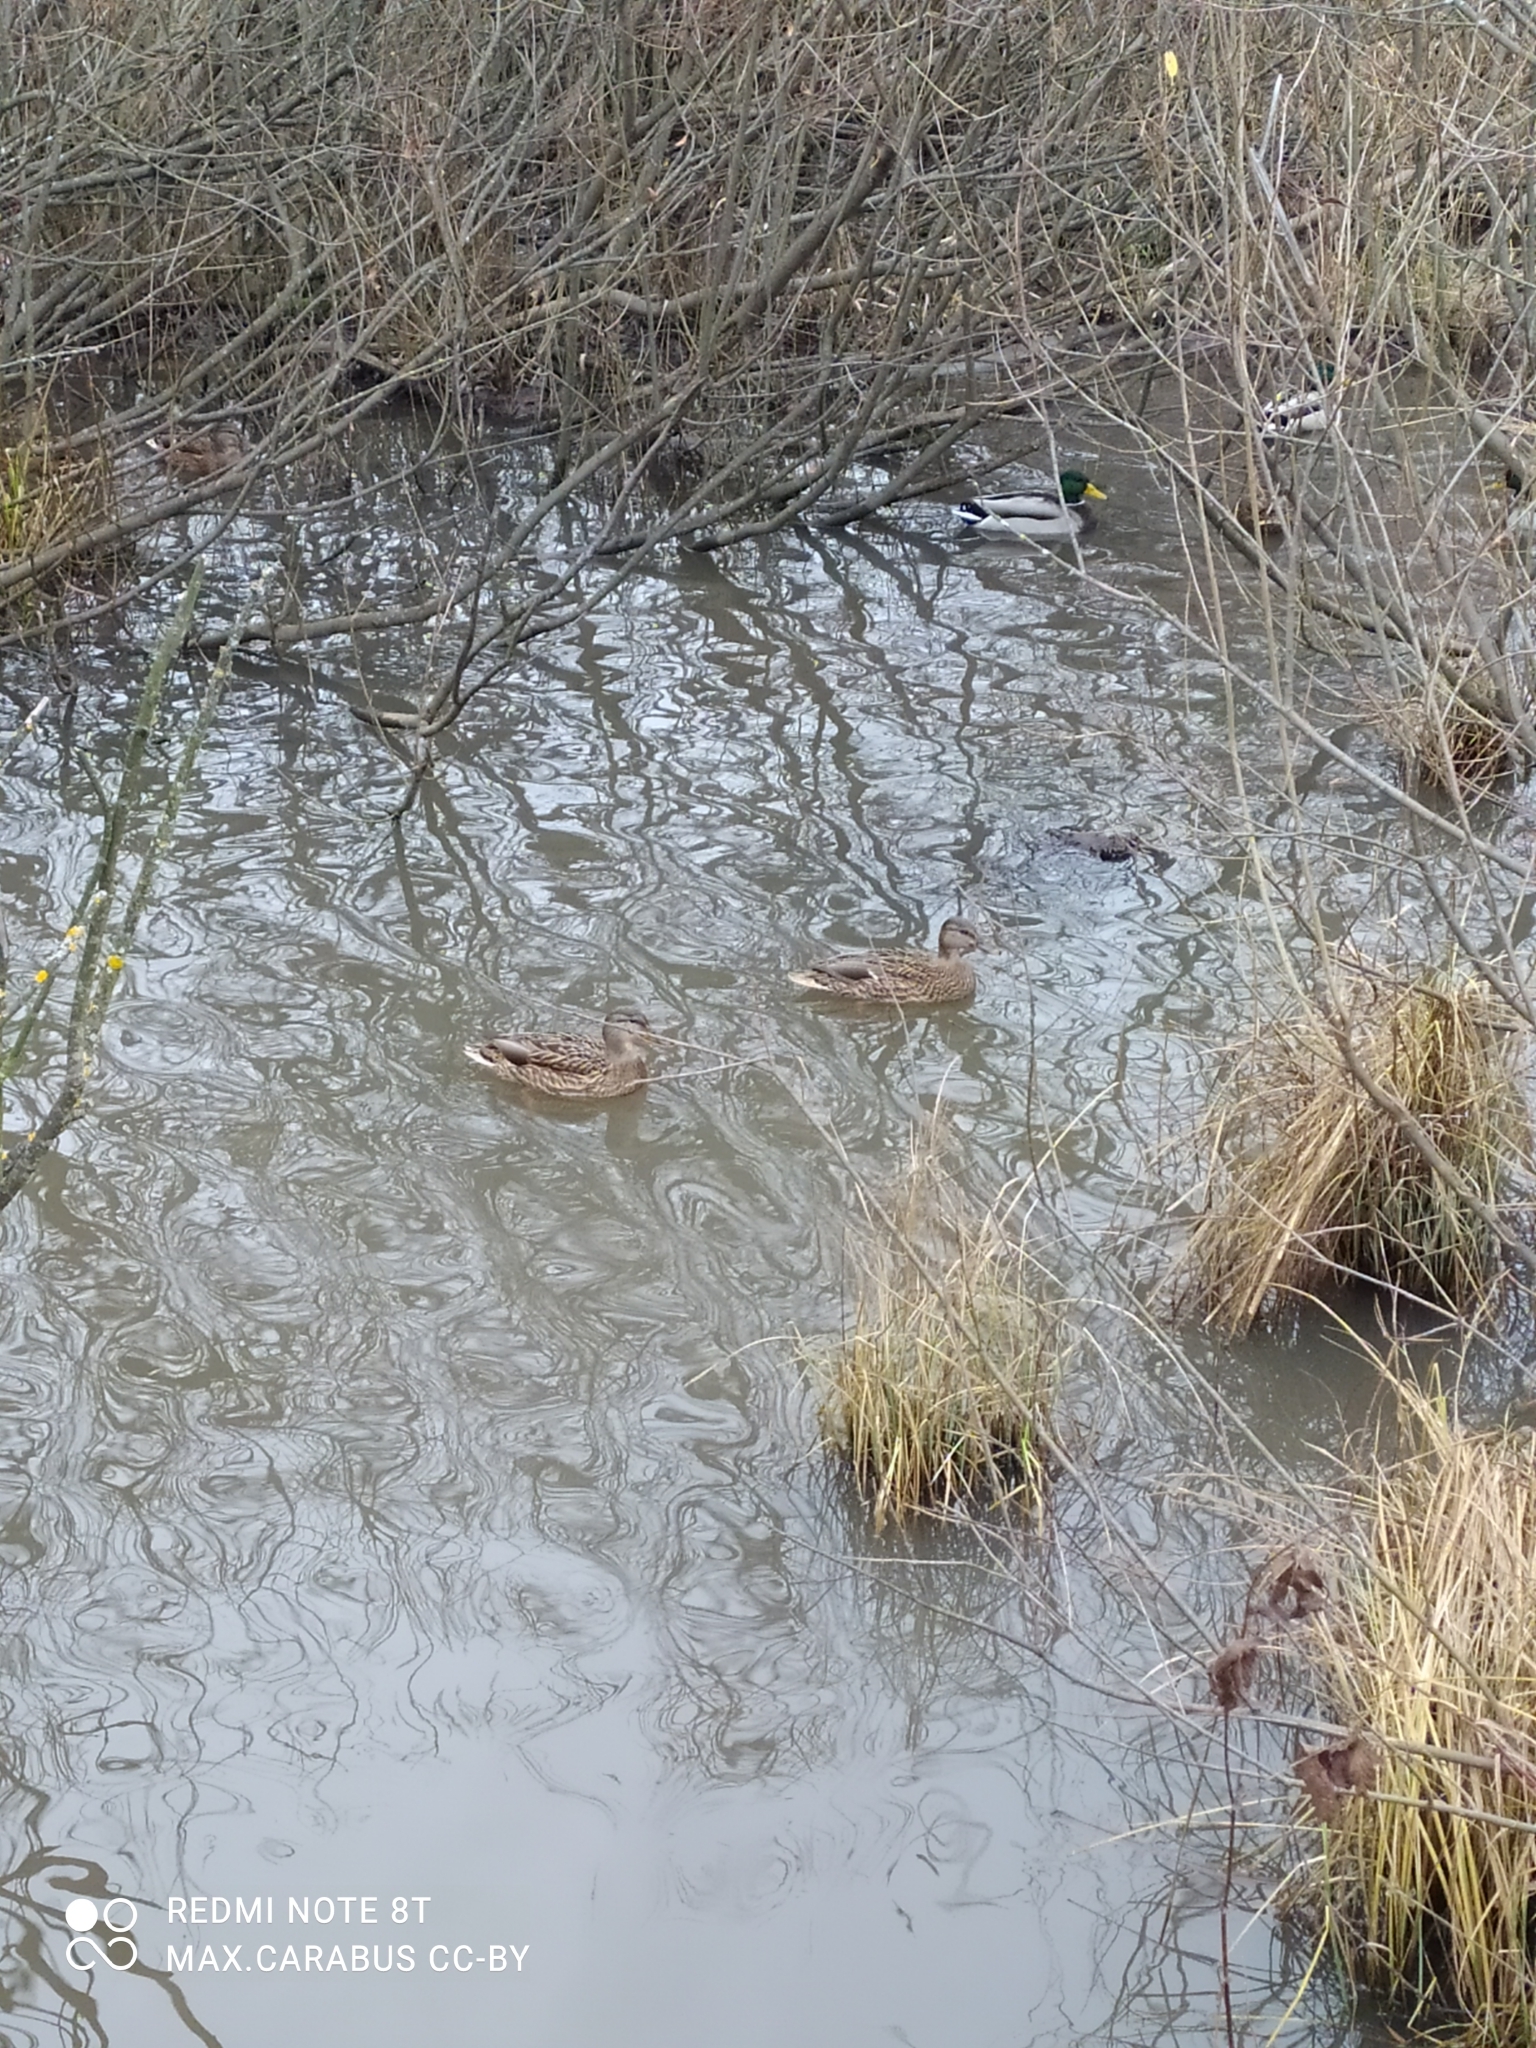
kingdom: Animalia
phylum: Chordata
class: Aves
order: Anseriformes
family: Anatidae
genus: Anas
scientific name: Anas platyrhynchos
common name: Mallard
